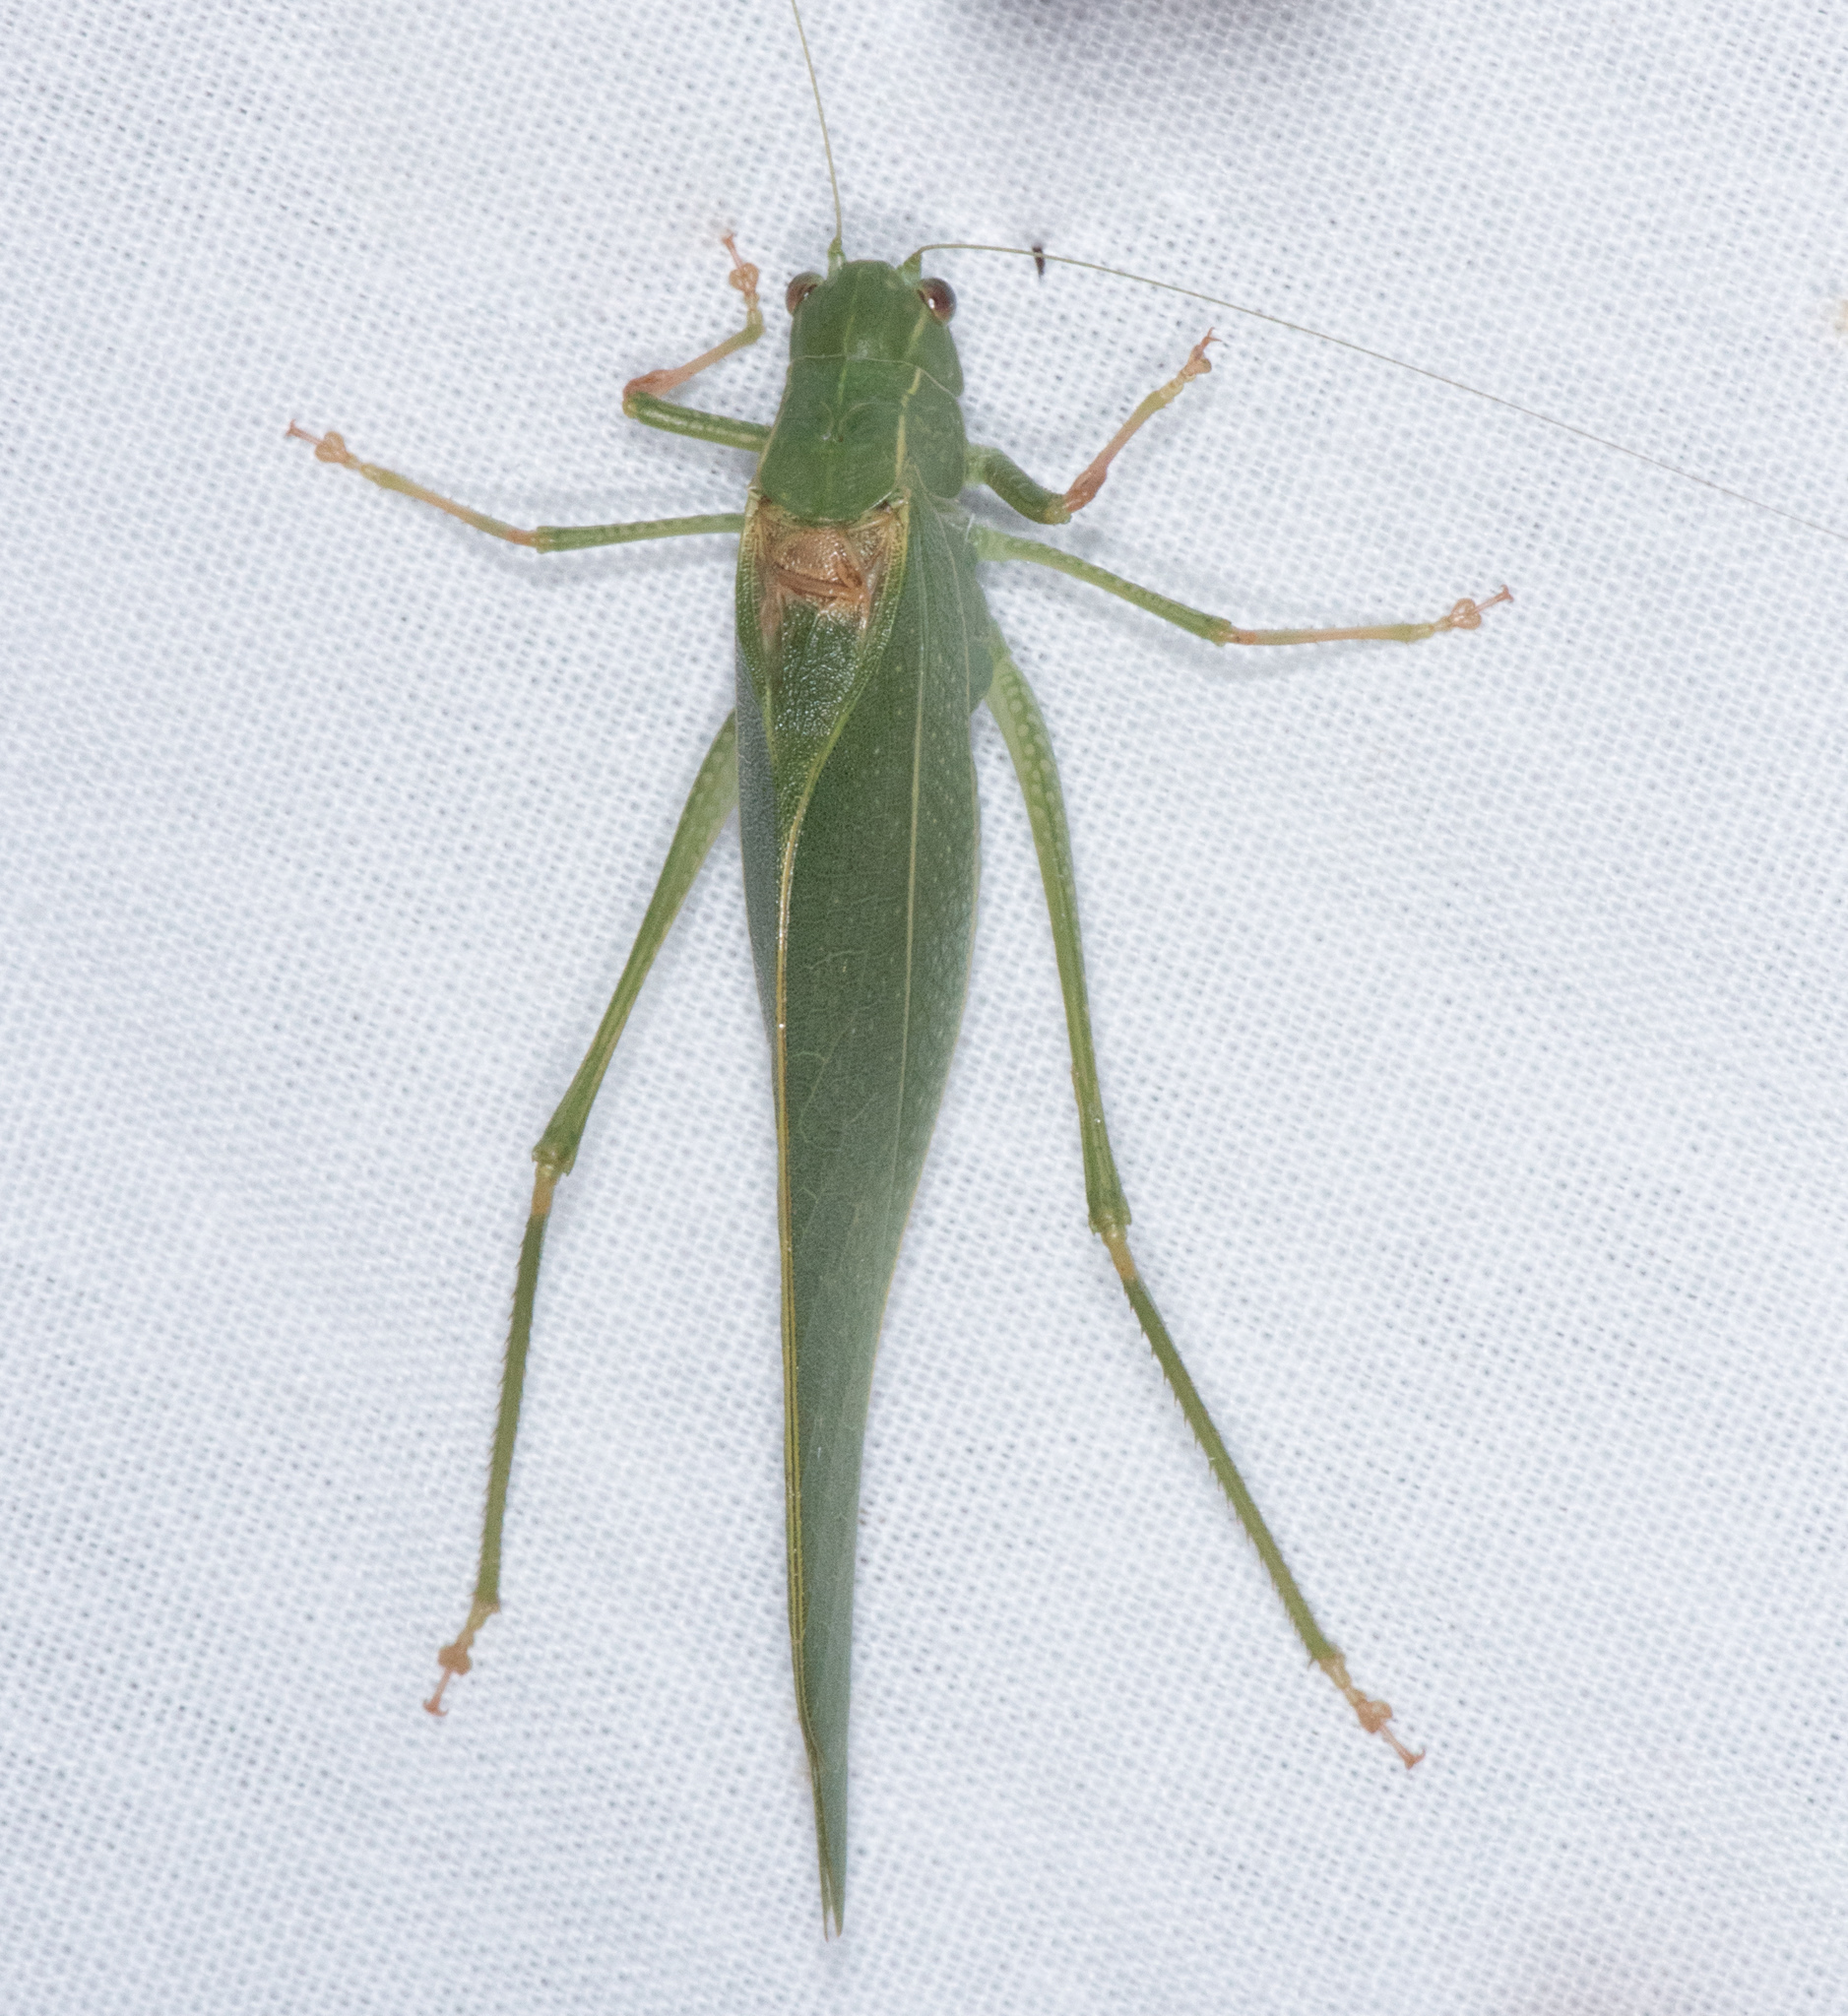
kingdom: Animalia
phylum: Arthropoda
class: Insecta
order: Orthoptera
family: Tettigoniidae
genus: Microcentrum
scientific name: Microcentrum californicum
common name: California angle-wing
